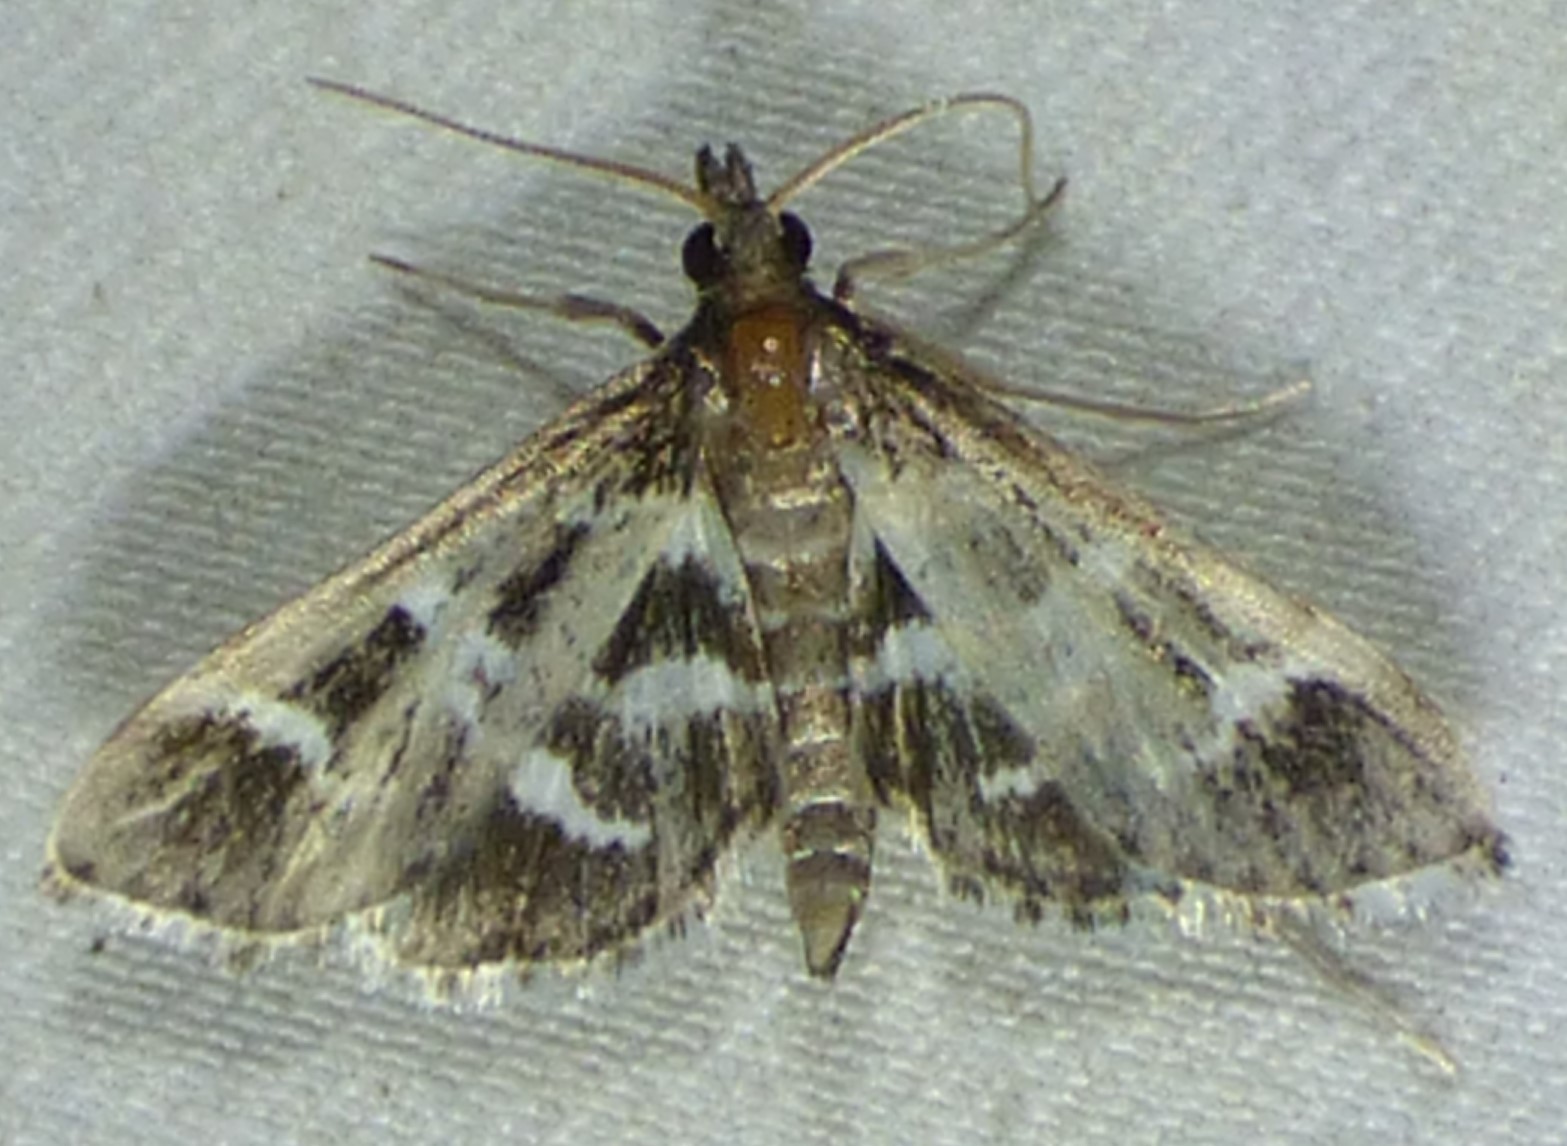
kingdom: Animalia
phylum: Arthropoda
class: Insecta
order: Lepidoptera
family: Crambidae
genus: Diasemiodes
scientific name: Diasemiodes janassialis
